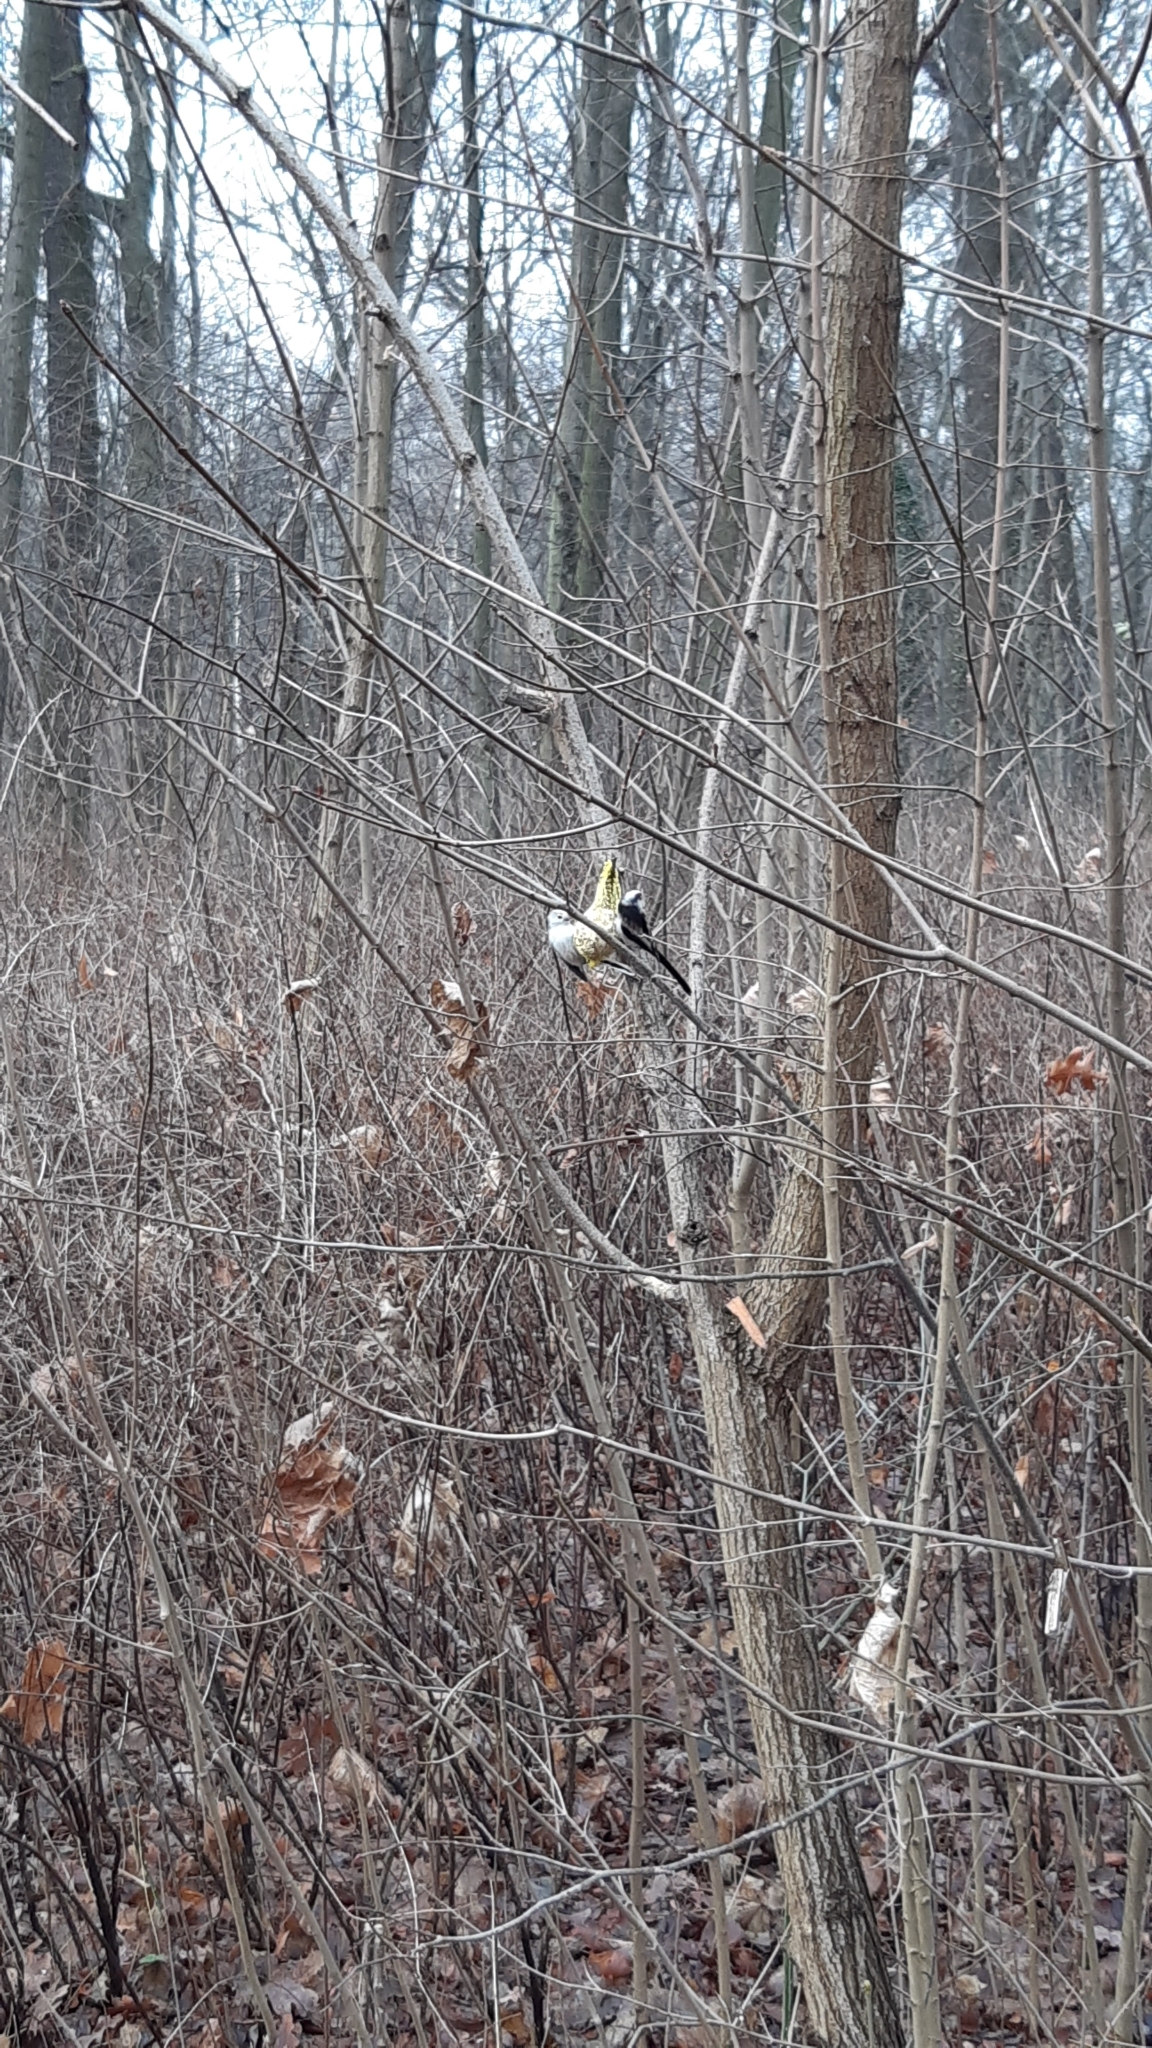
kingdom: Animalia
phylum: Chordata
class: Aves
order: Passeriformes
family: Aegithalidae
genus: Aegithalos
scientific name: Aegithalos caudatus
